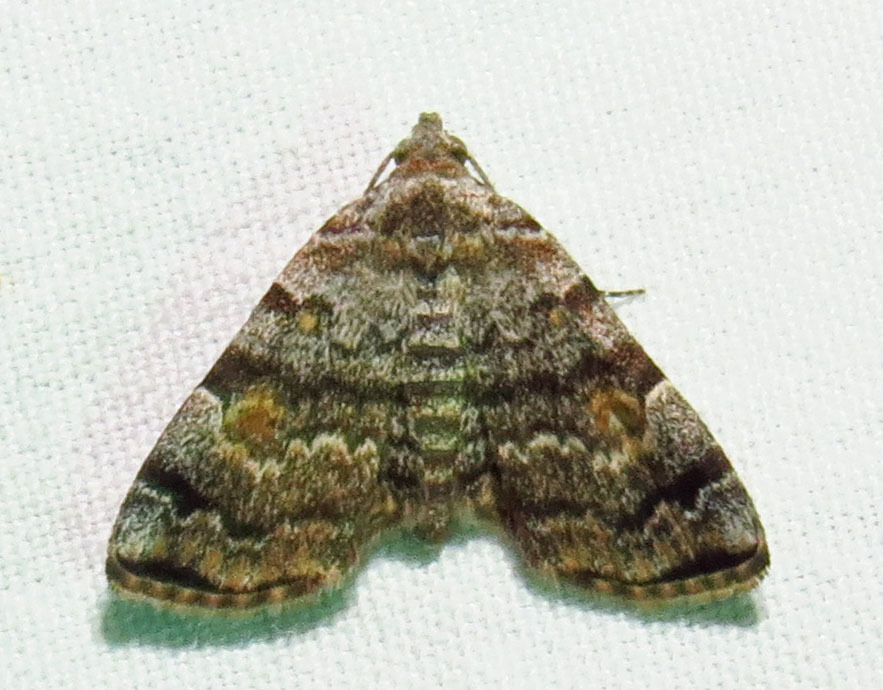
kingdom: Animalia
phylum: Arthropoda
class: Insecta
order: Lepidoptera
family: Erebidae
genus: Idia
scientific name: Idia americalis
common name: American idia moth
